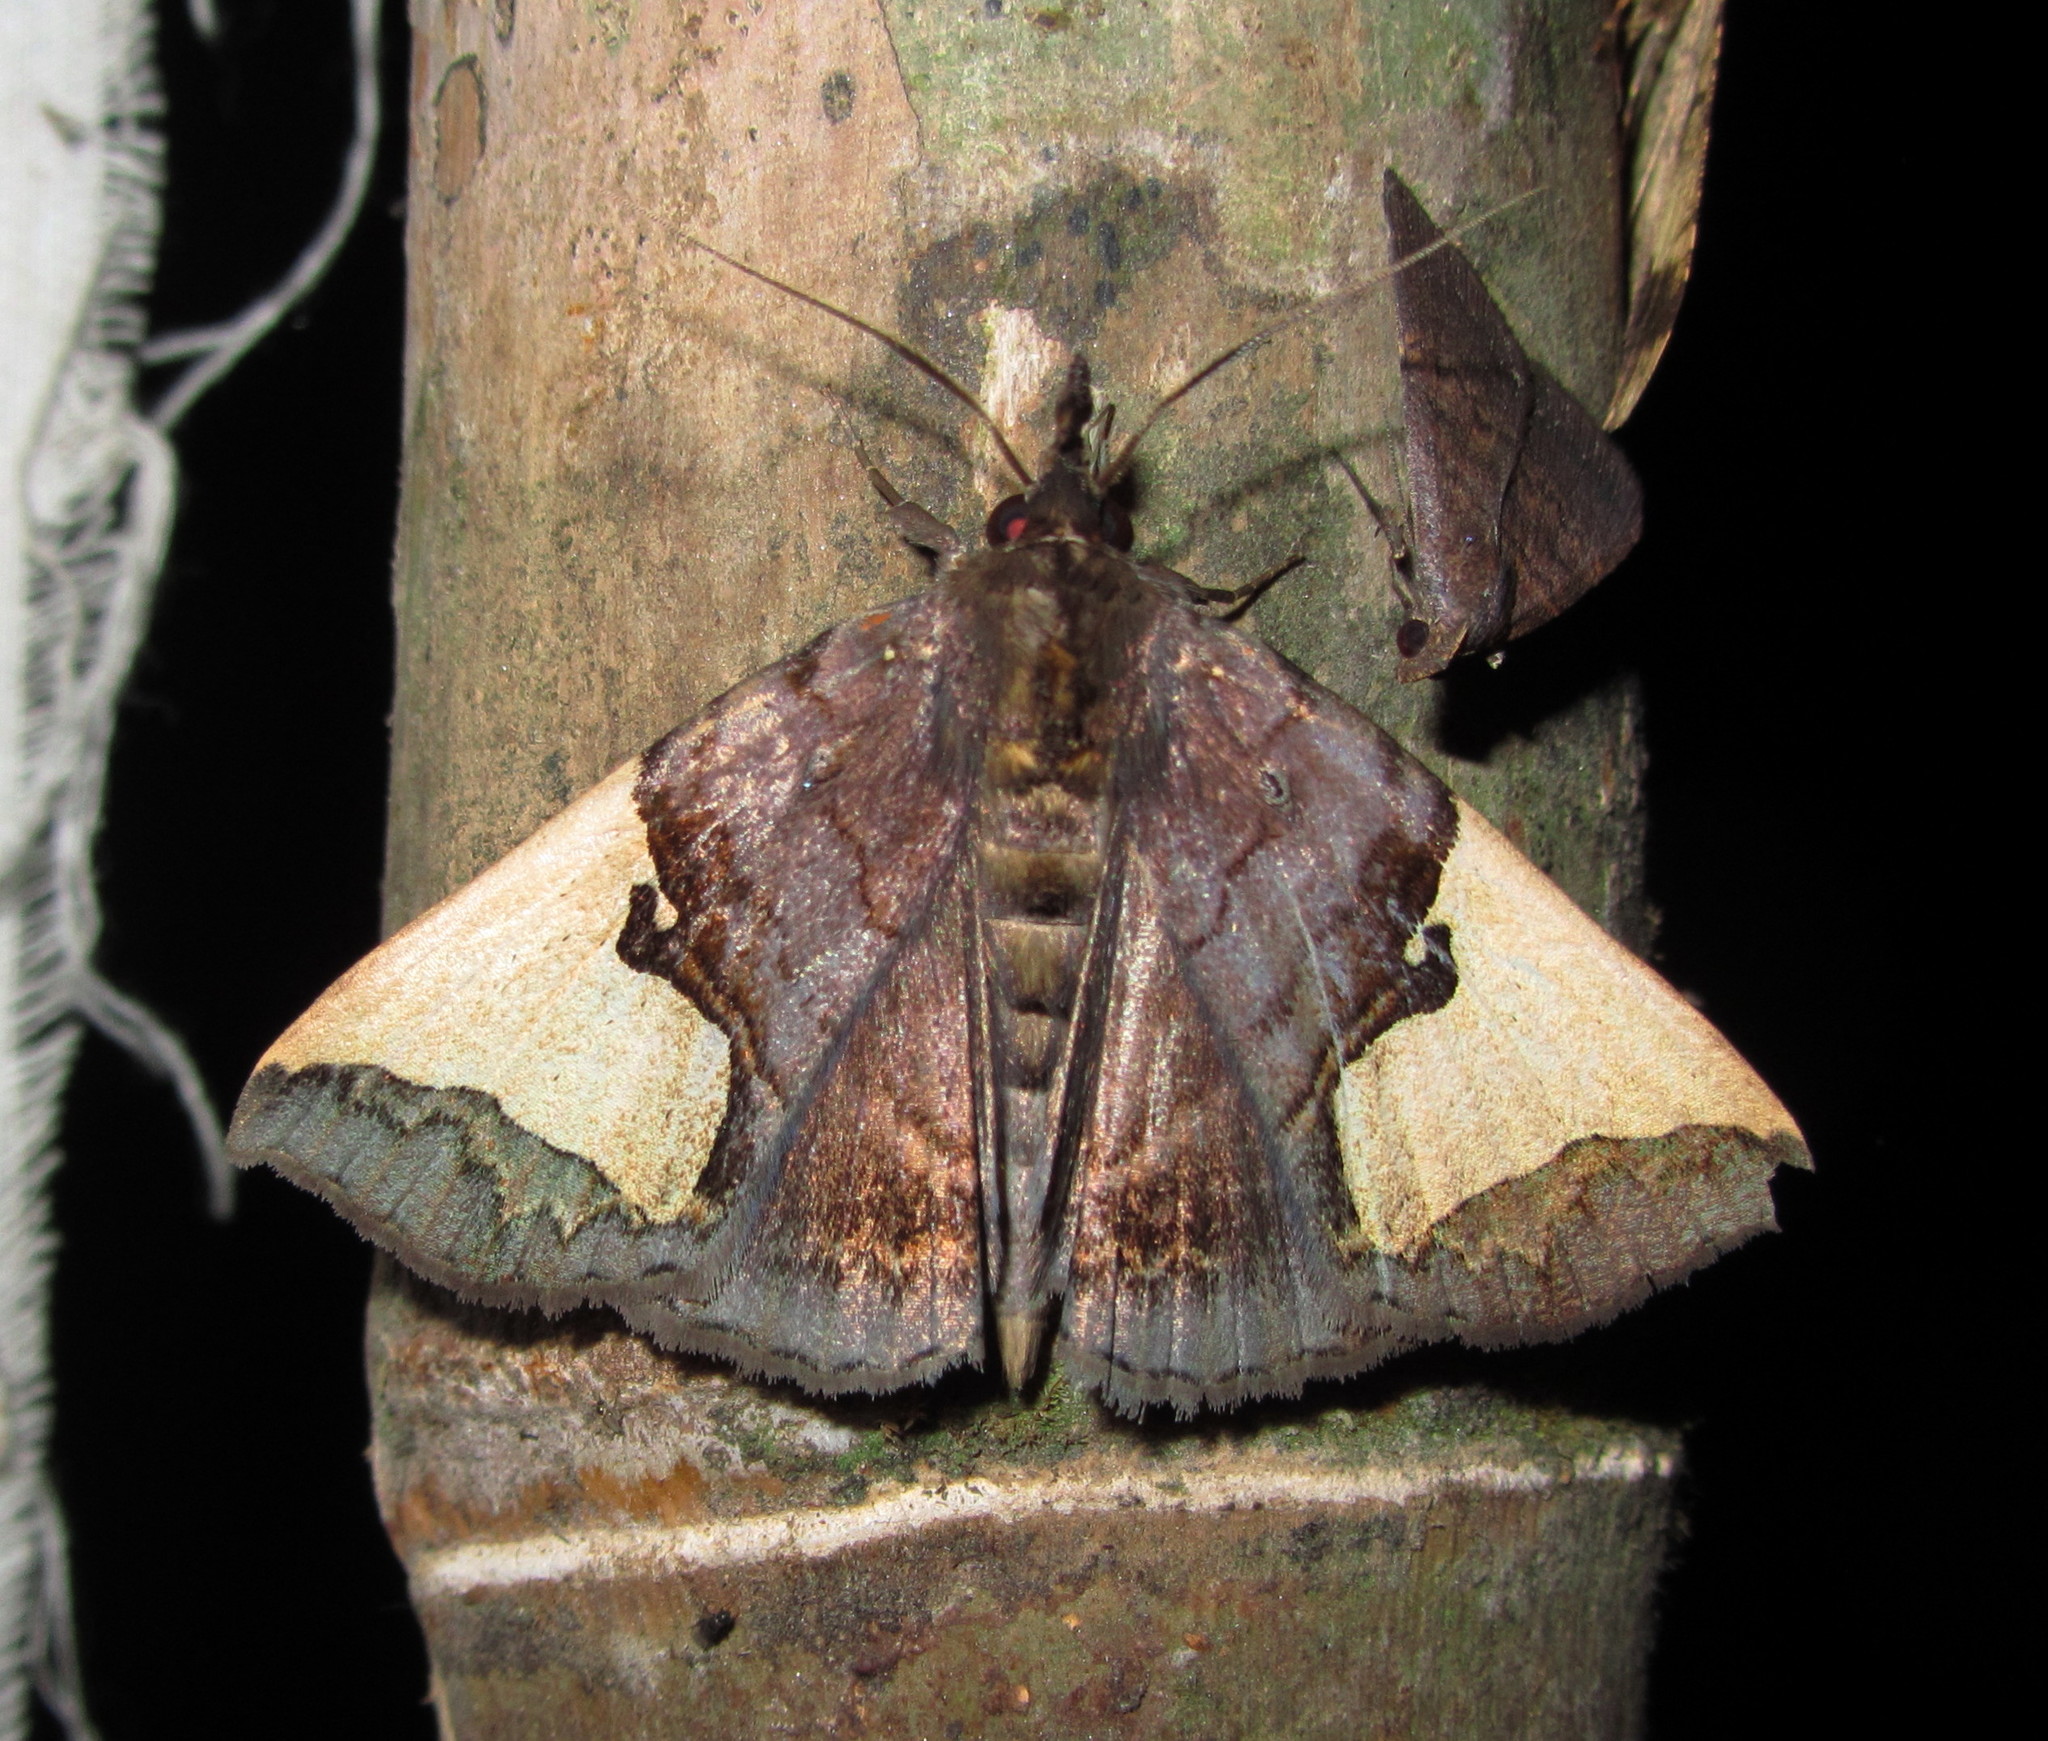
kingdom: Animalia
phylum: Arthropoda
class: Insecta
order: Lepidoptera
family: Erebidae
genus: Ochrotrigona
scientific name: Ochrotrigona triangulifera
